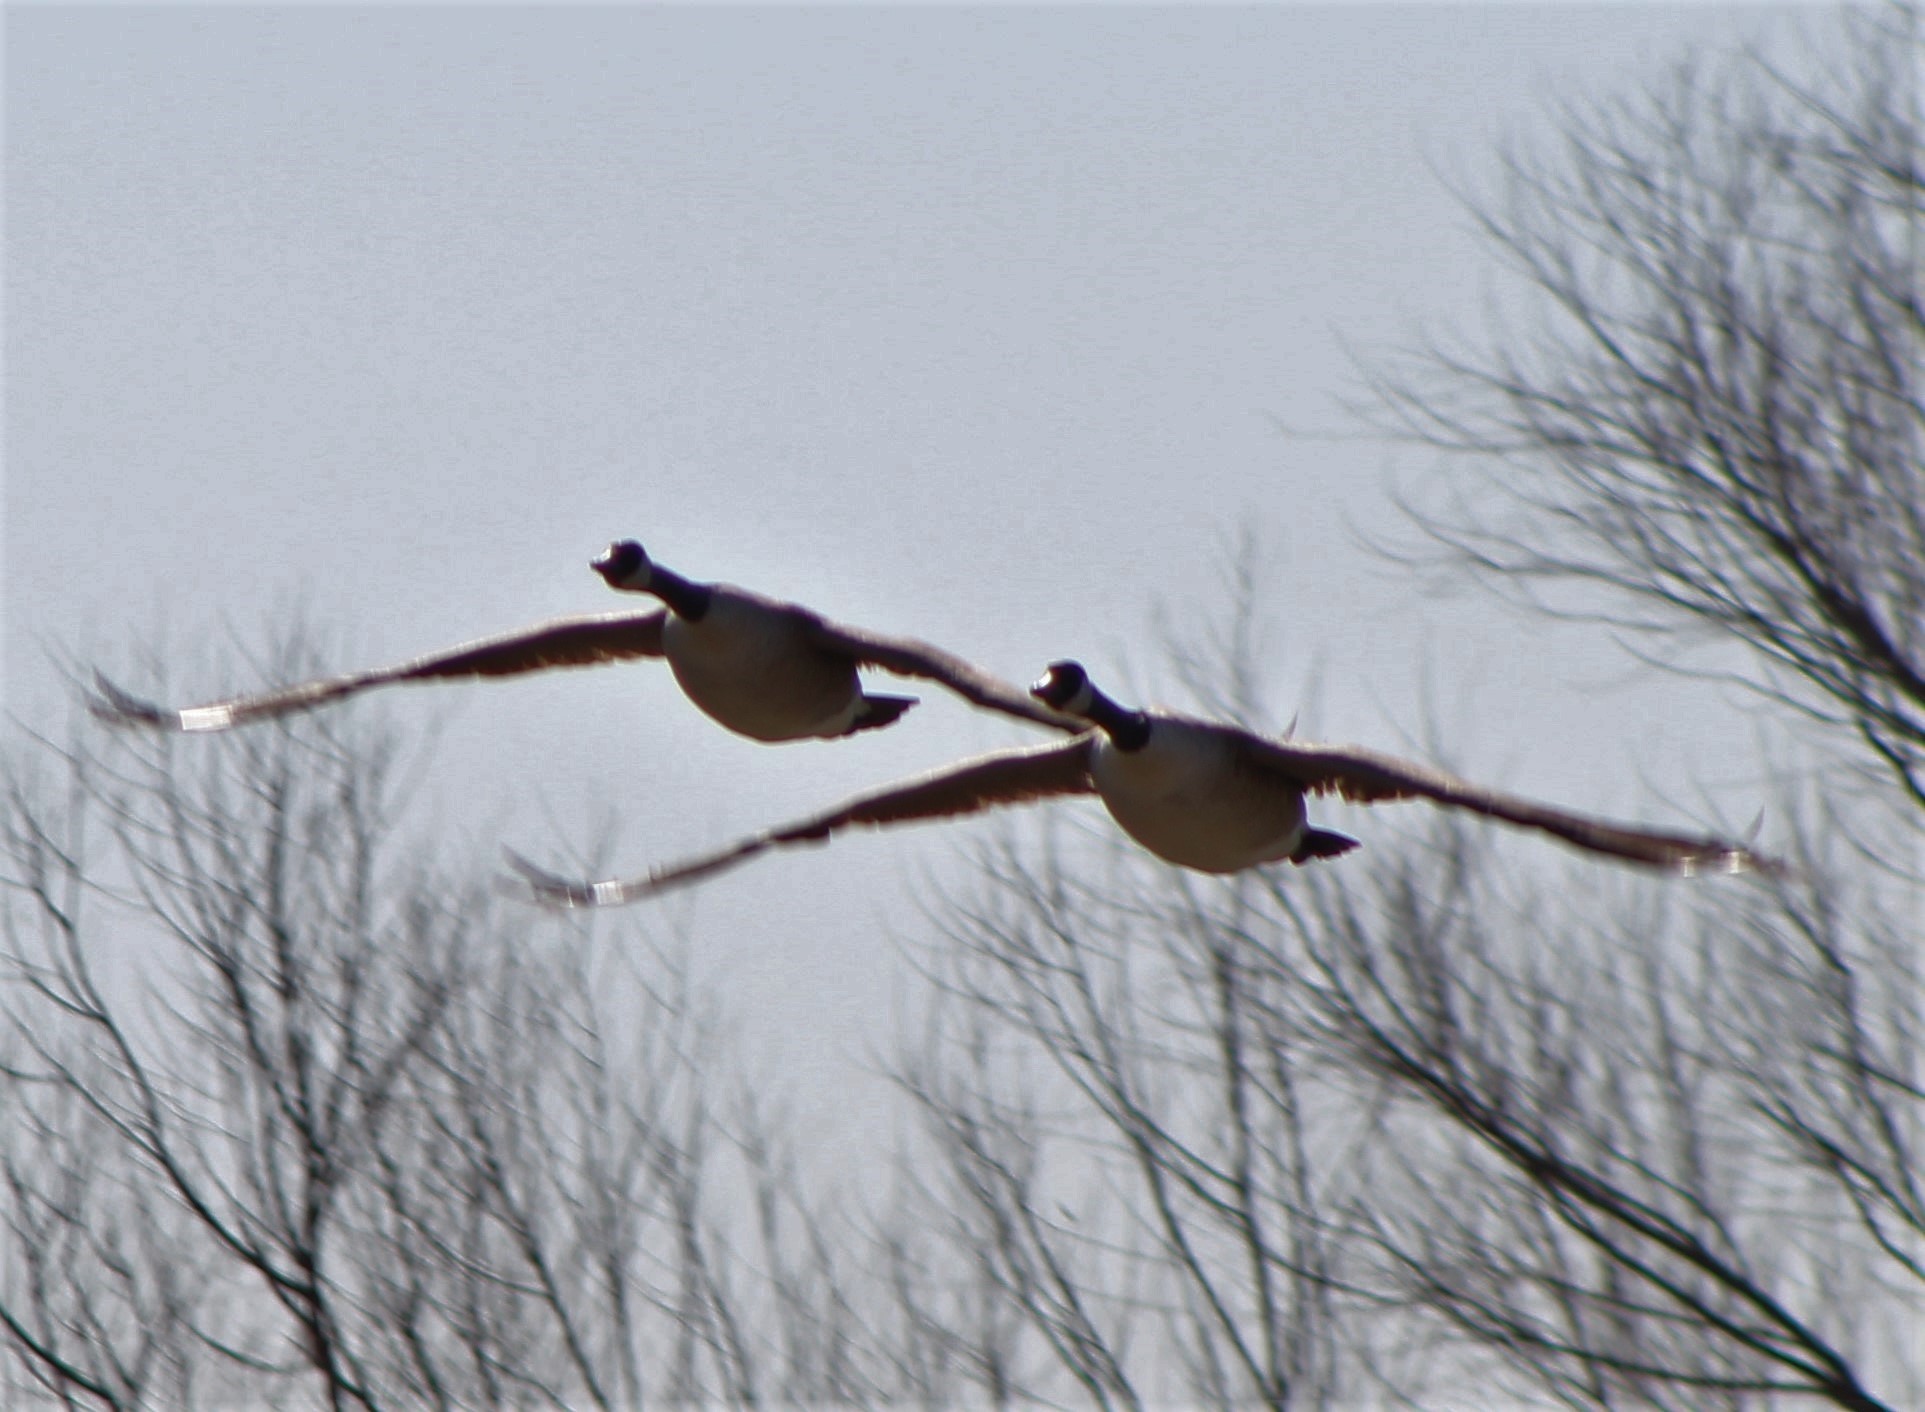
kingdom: Animalia
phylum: Chordata
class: Aves
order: Anseriformes
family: Anatidae
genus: Branta
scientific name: Branta canadensis
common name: Canada goose
